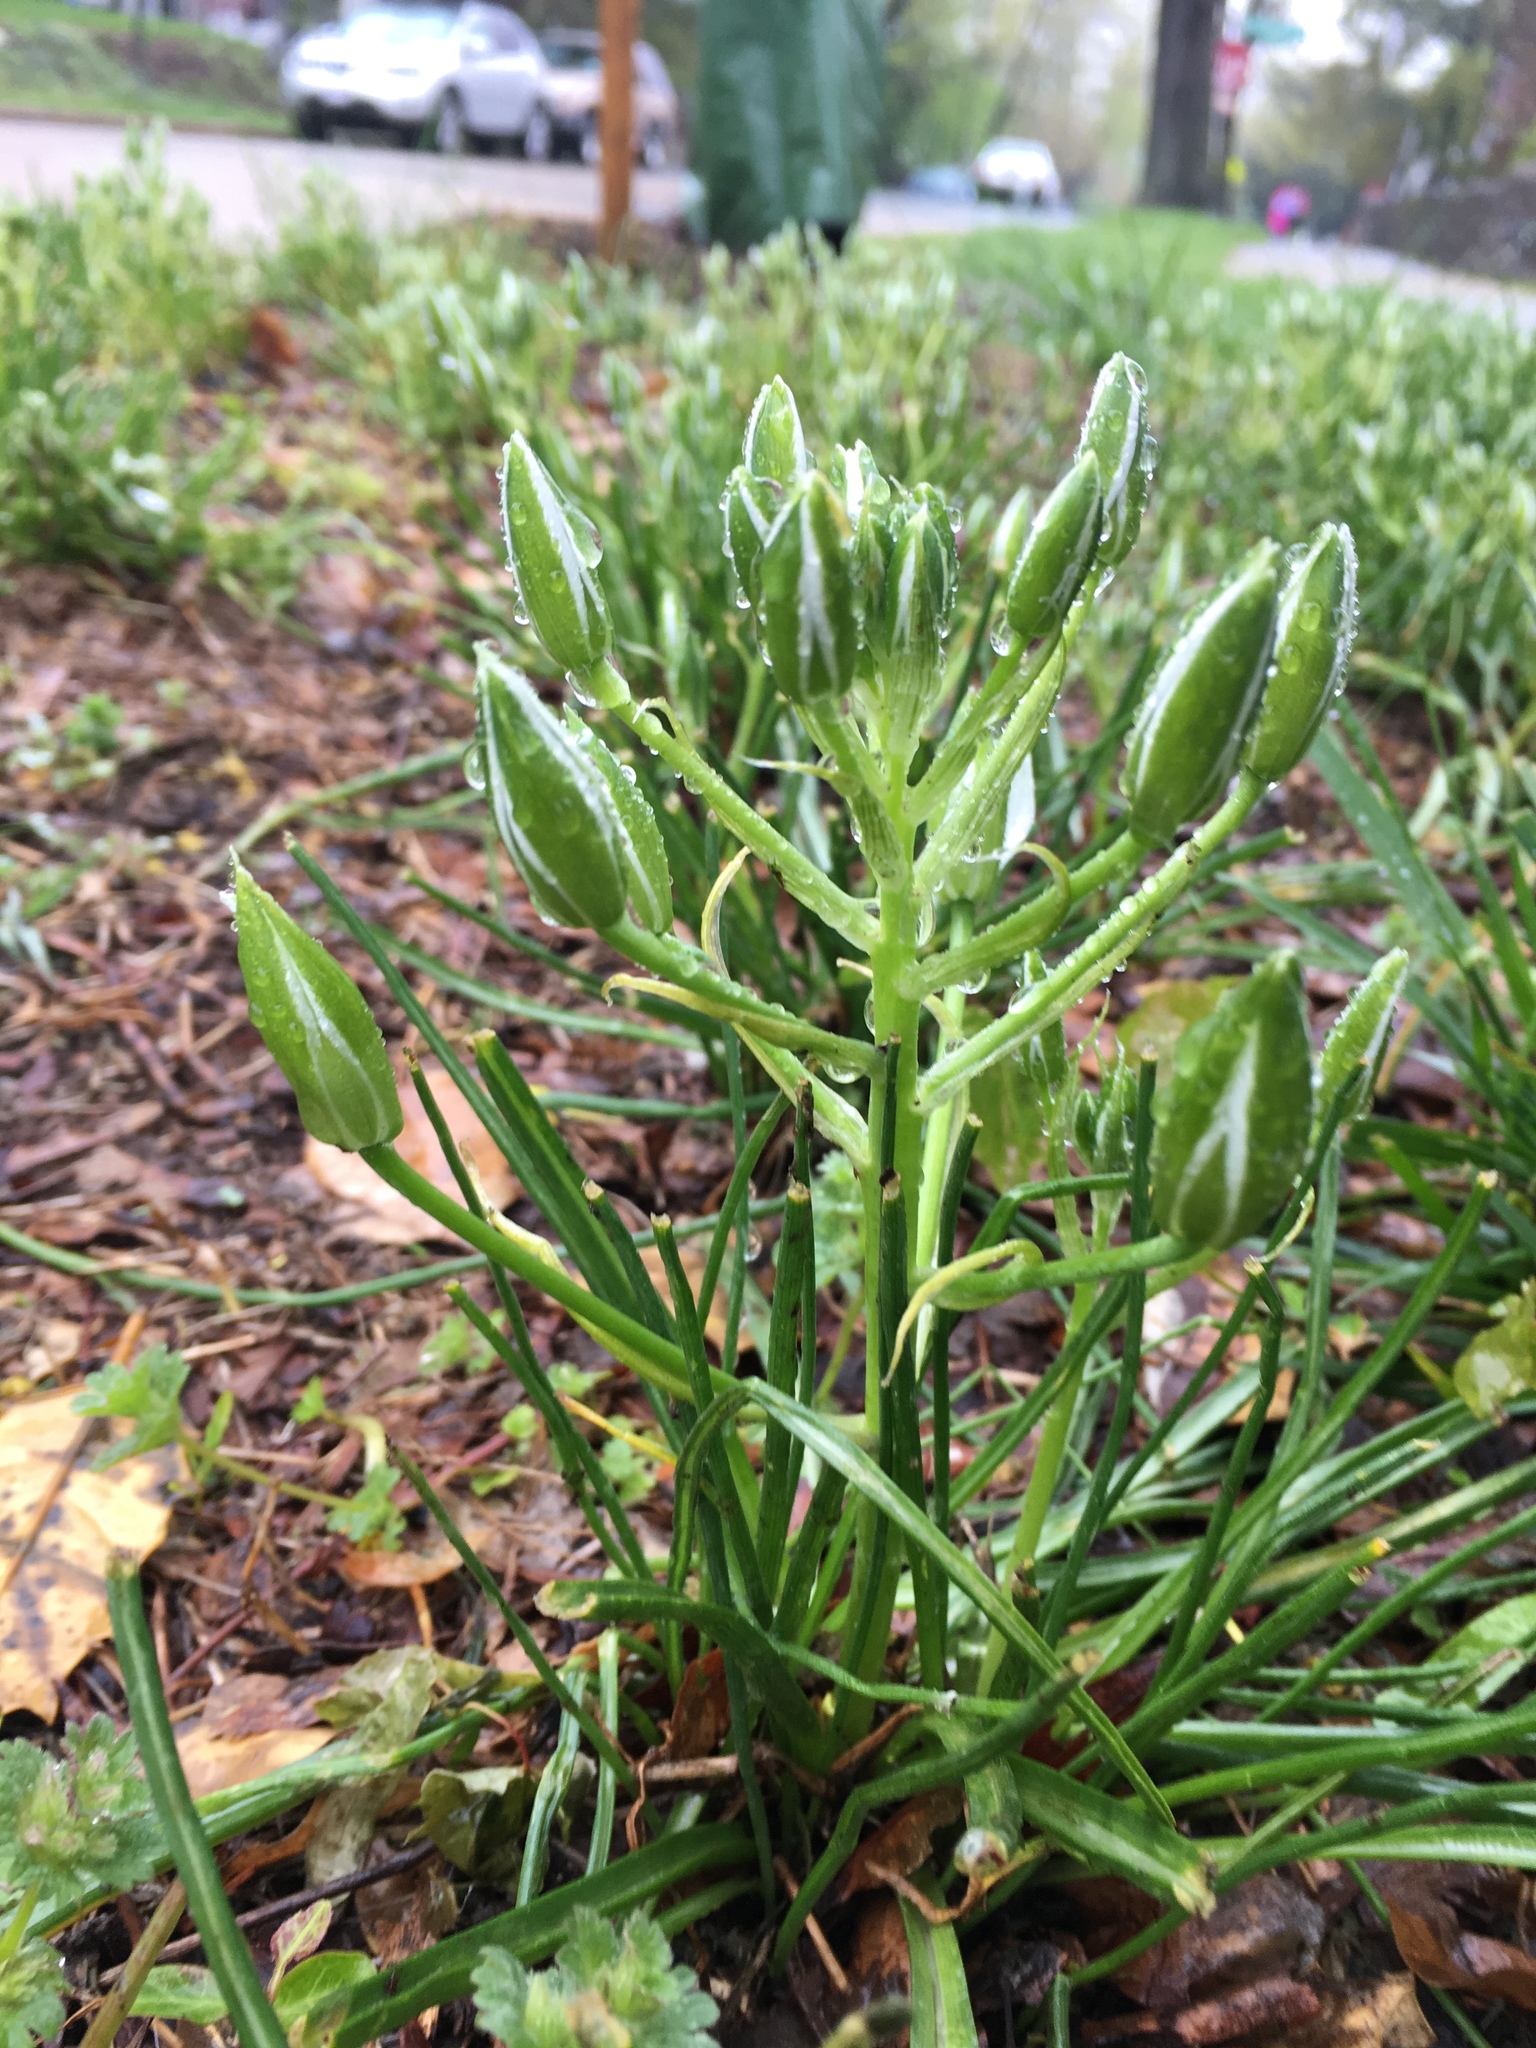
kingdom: Plantae
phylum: Tracheophyta
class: Liliopsida
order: Asparagales
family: Asparagaceae
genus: Ornithogalum
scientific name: Ornithogalum umbellatum
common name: Garden star-of-bethlehem
